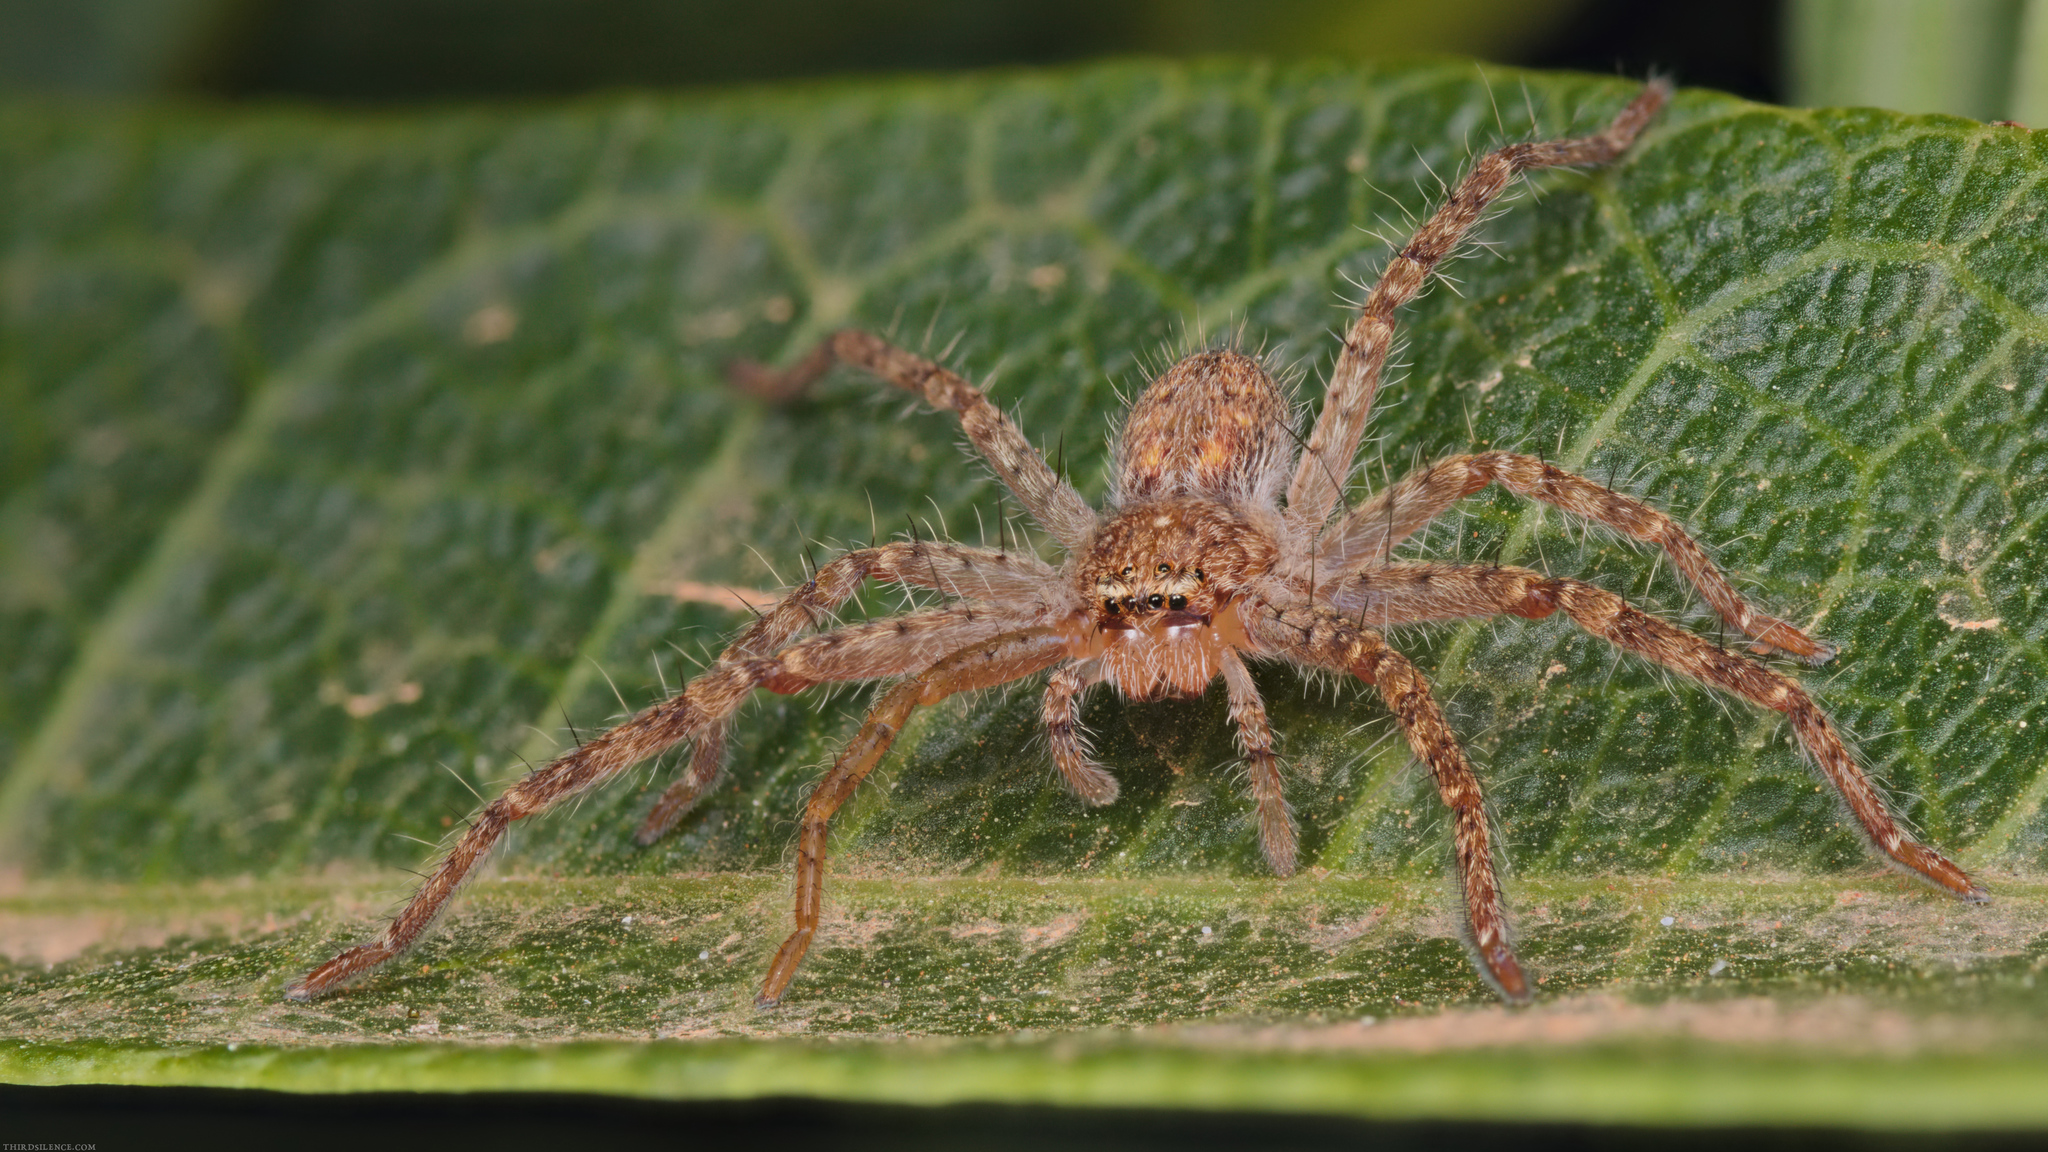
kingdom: Animalia
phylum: Arthropoda
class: Arachnida
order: Araneae
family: Sparassidae
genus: Isopedella
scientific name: Isopedella pessleri
